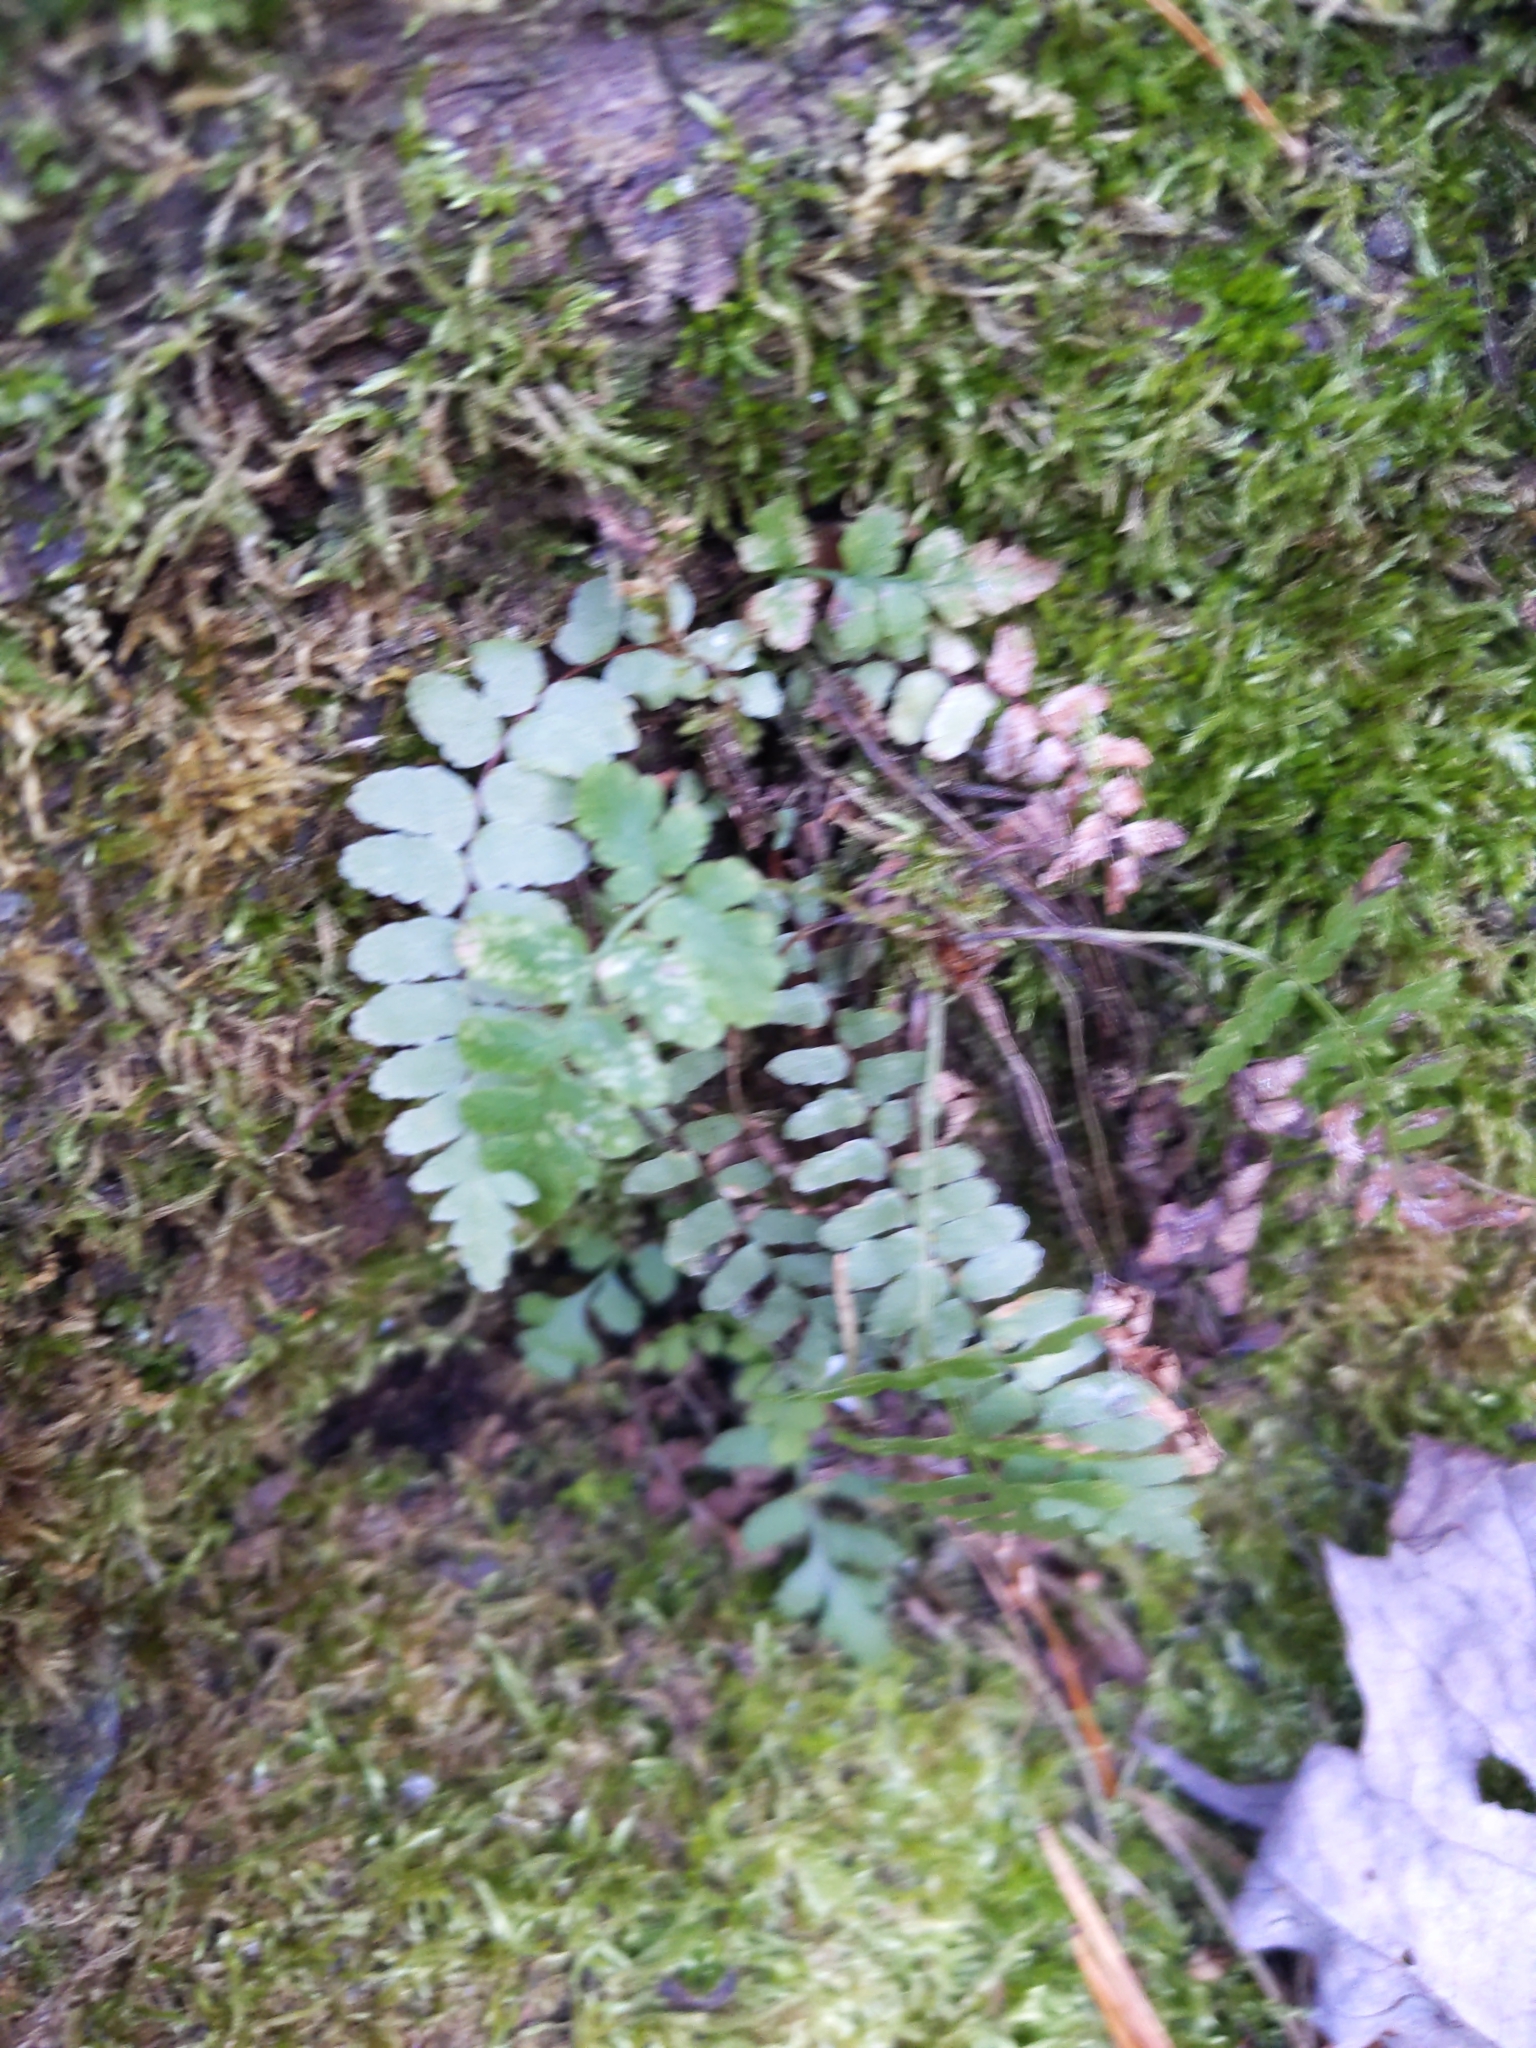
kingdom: Plantae
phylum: Tracheophyta
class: Polypodiopsida
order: Polypodiales
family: Aspleniaceae
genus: Asplenium
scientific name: Asplenium platyneuron
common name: Ebony spleenwort
